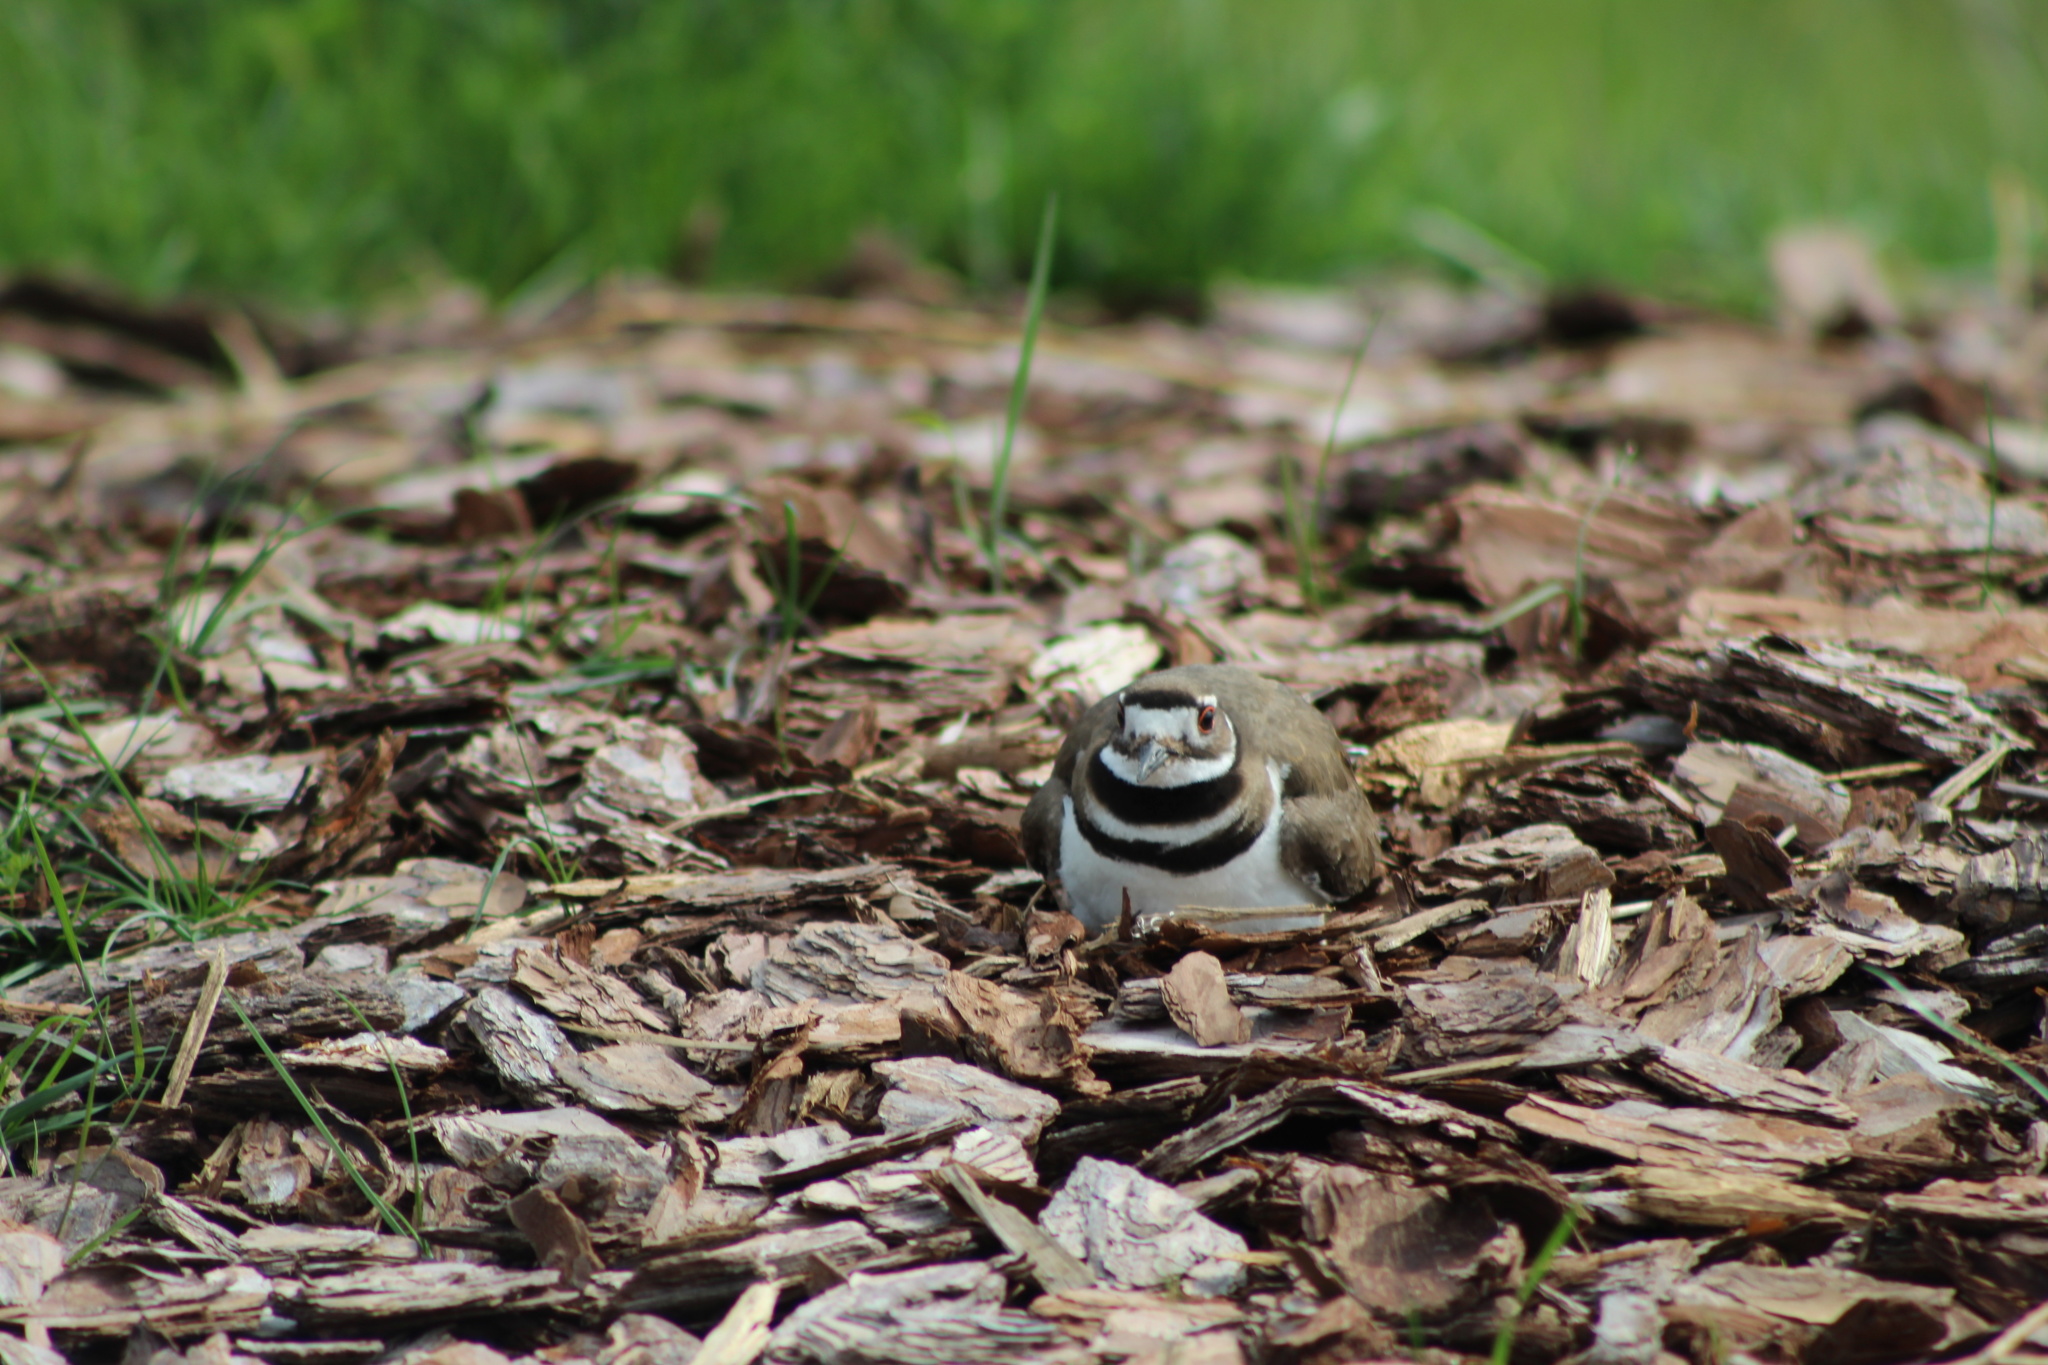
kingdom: Animalia
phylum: Chordata
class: Aves
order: Charadriiformes
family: Charadriidae
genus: Charadrius
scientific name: Charadrius vociferus
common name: Killdeer
